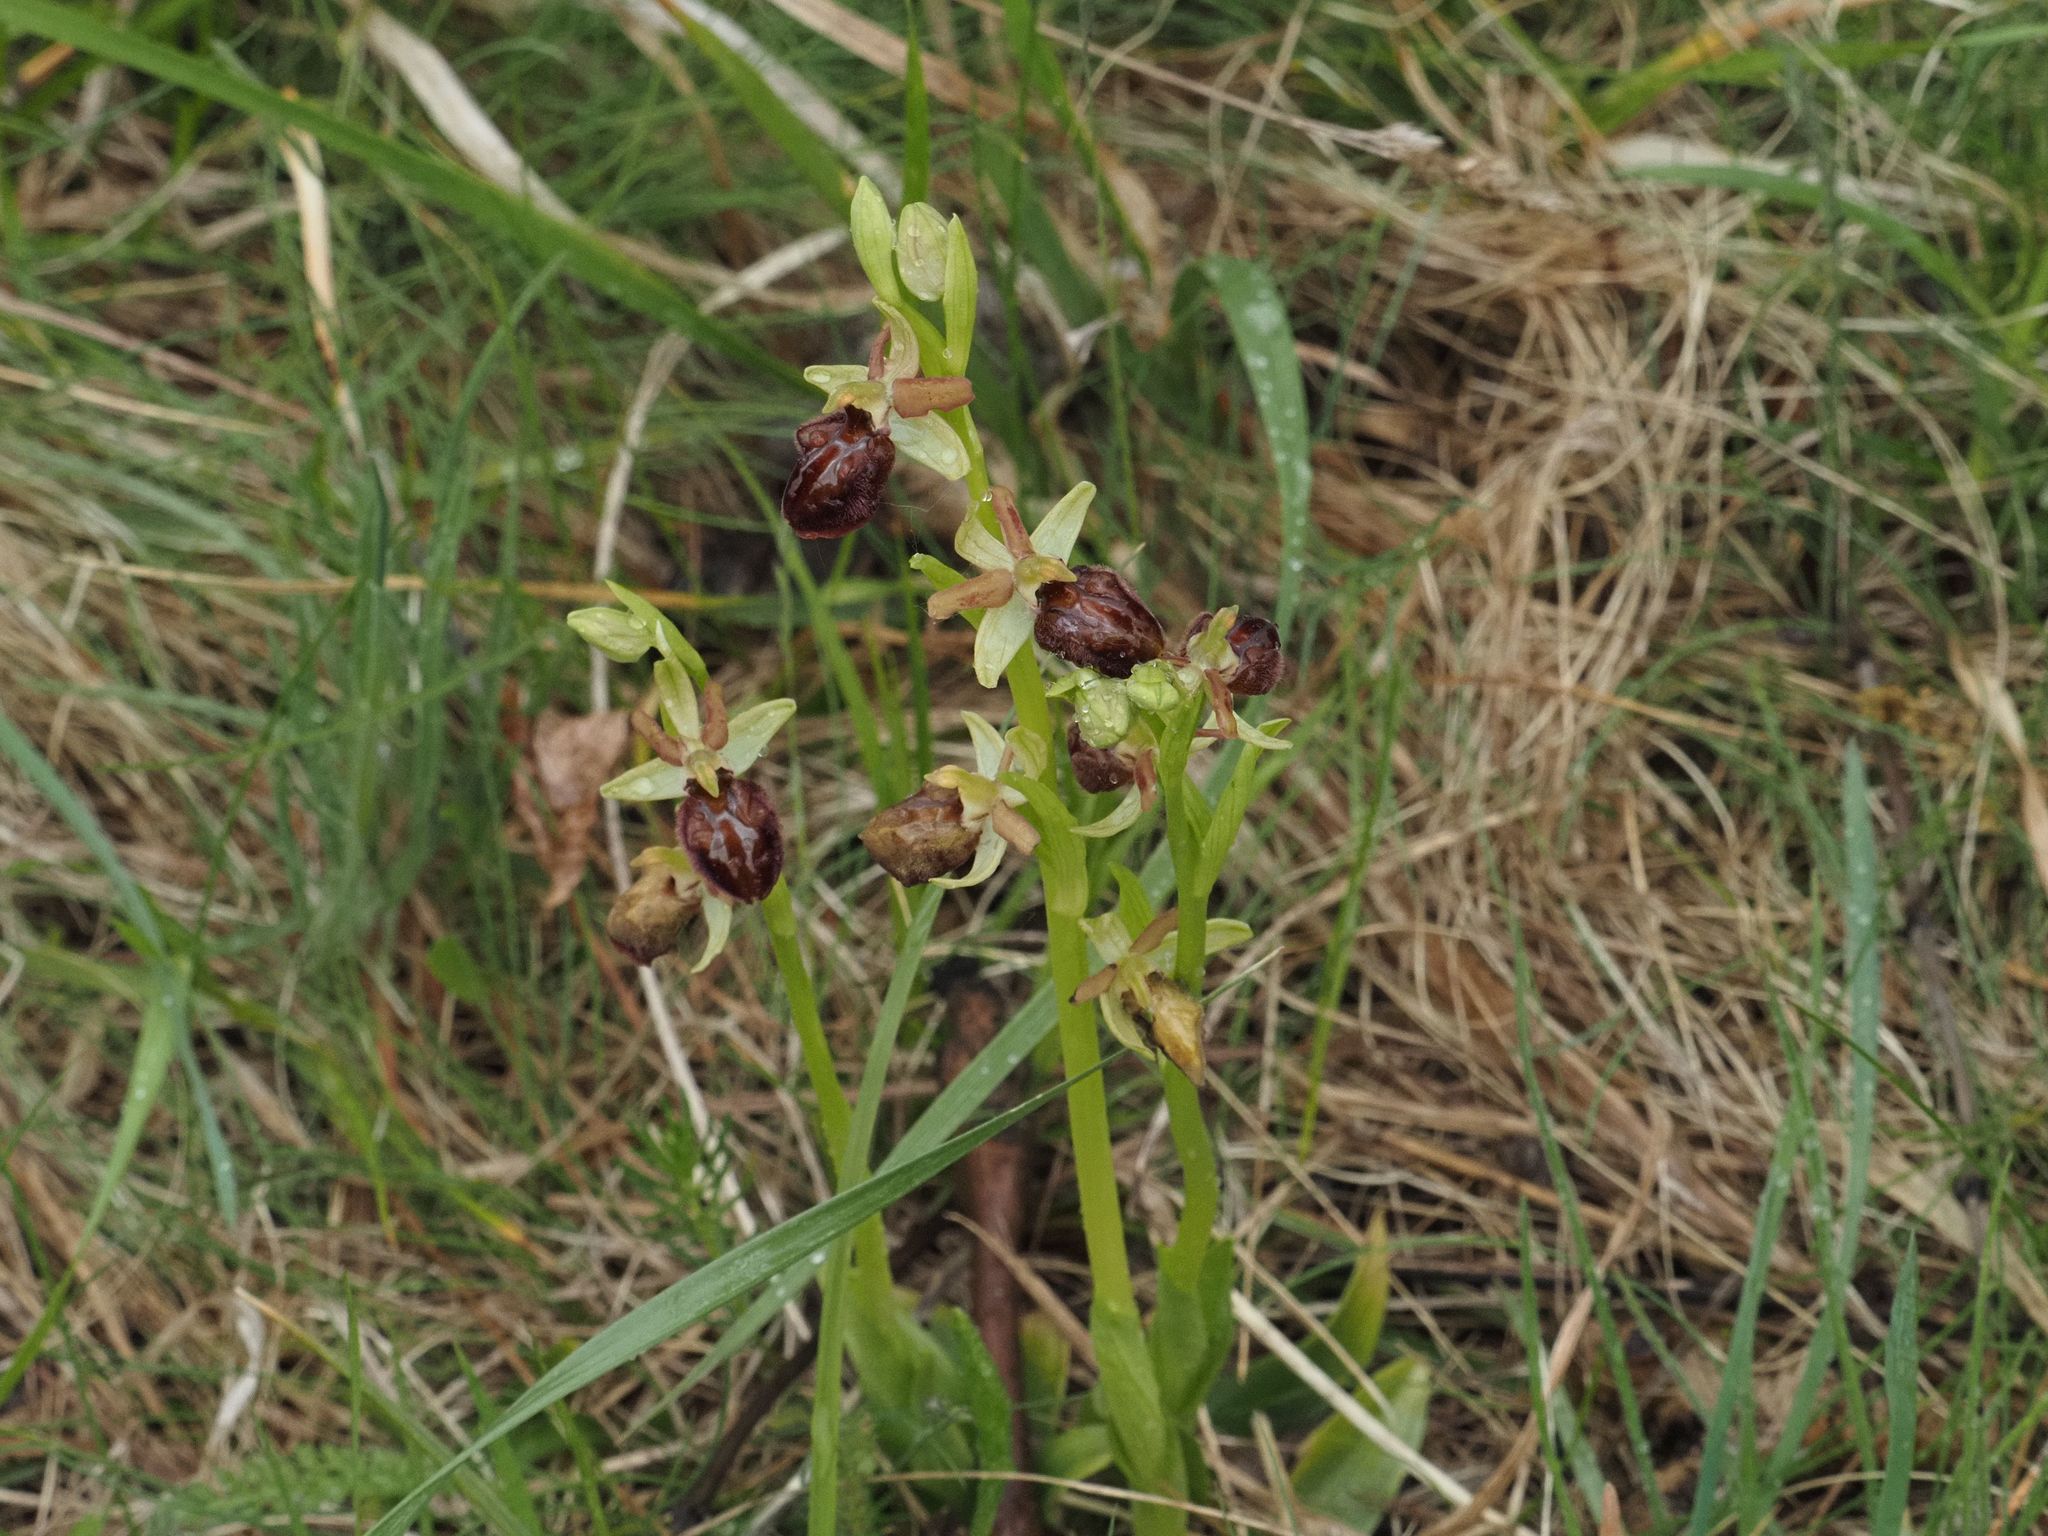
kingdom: Plantae
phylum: Tracheophyta
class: Liliopsida
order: Asparagales
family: Orchidaceae
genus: Ophrys
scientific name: Ophrys sphegodes
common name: Early spider-orchid
